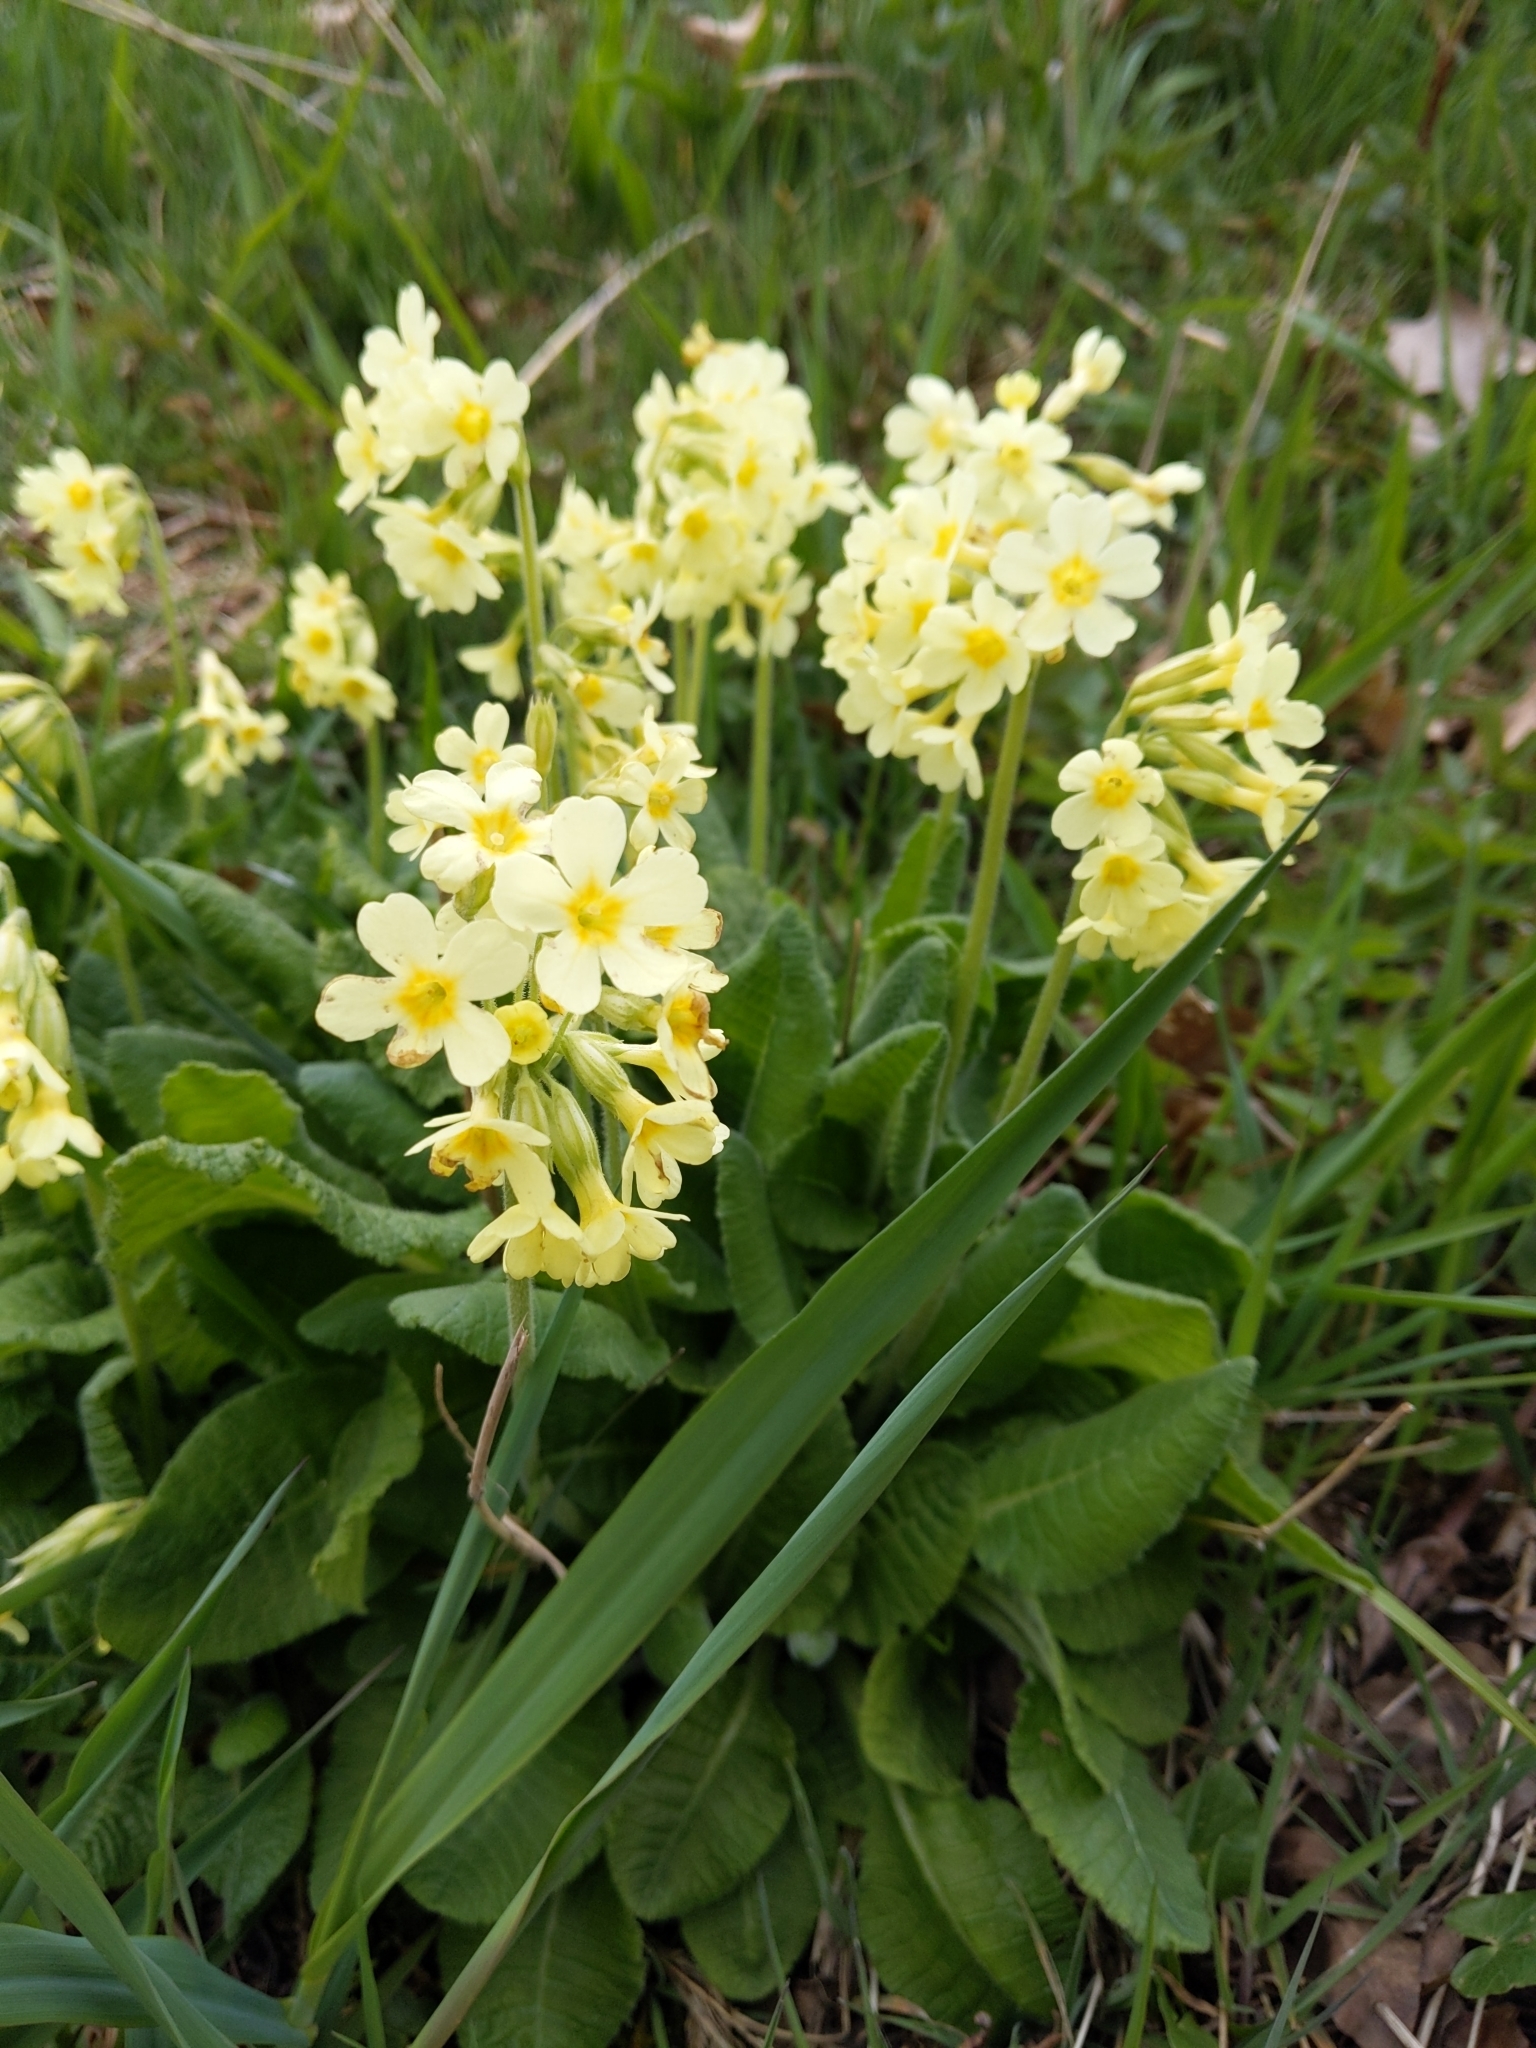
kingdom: Plantae
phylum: Tracheophyta
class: Magnoliopsida
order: Ericales
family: Primulaceae
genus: Primula
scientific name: Primula elatior
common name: Oxlip
